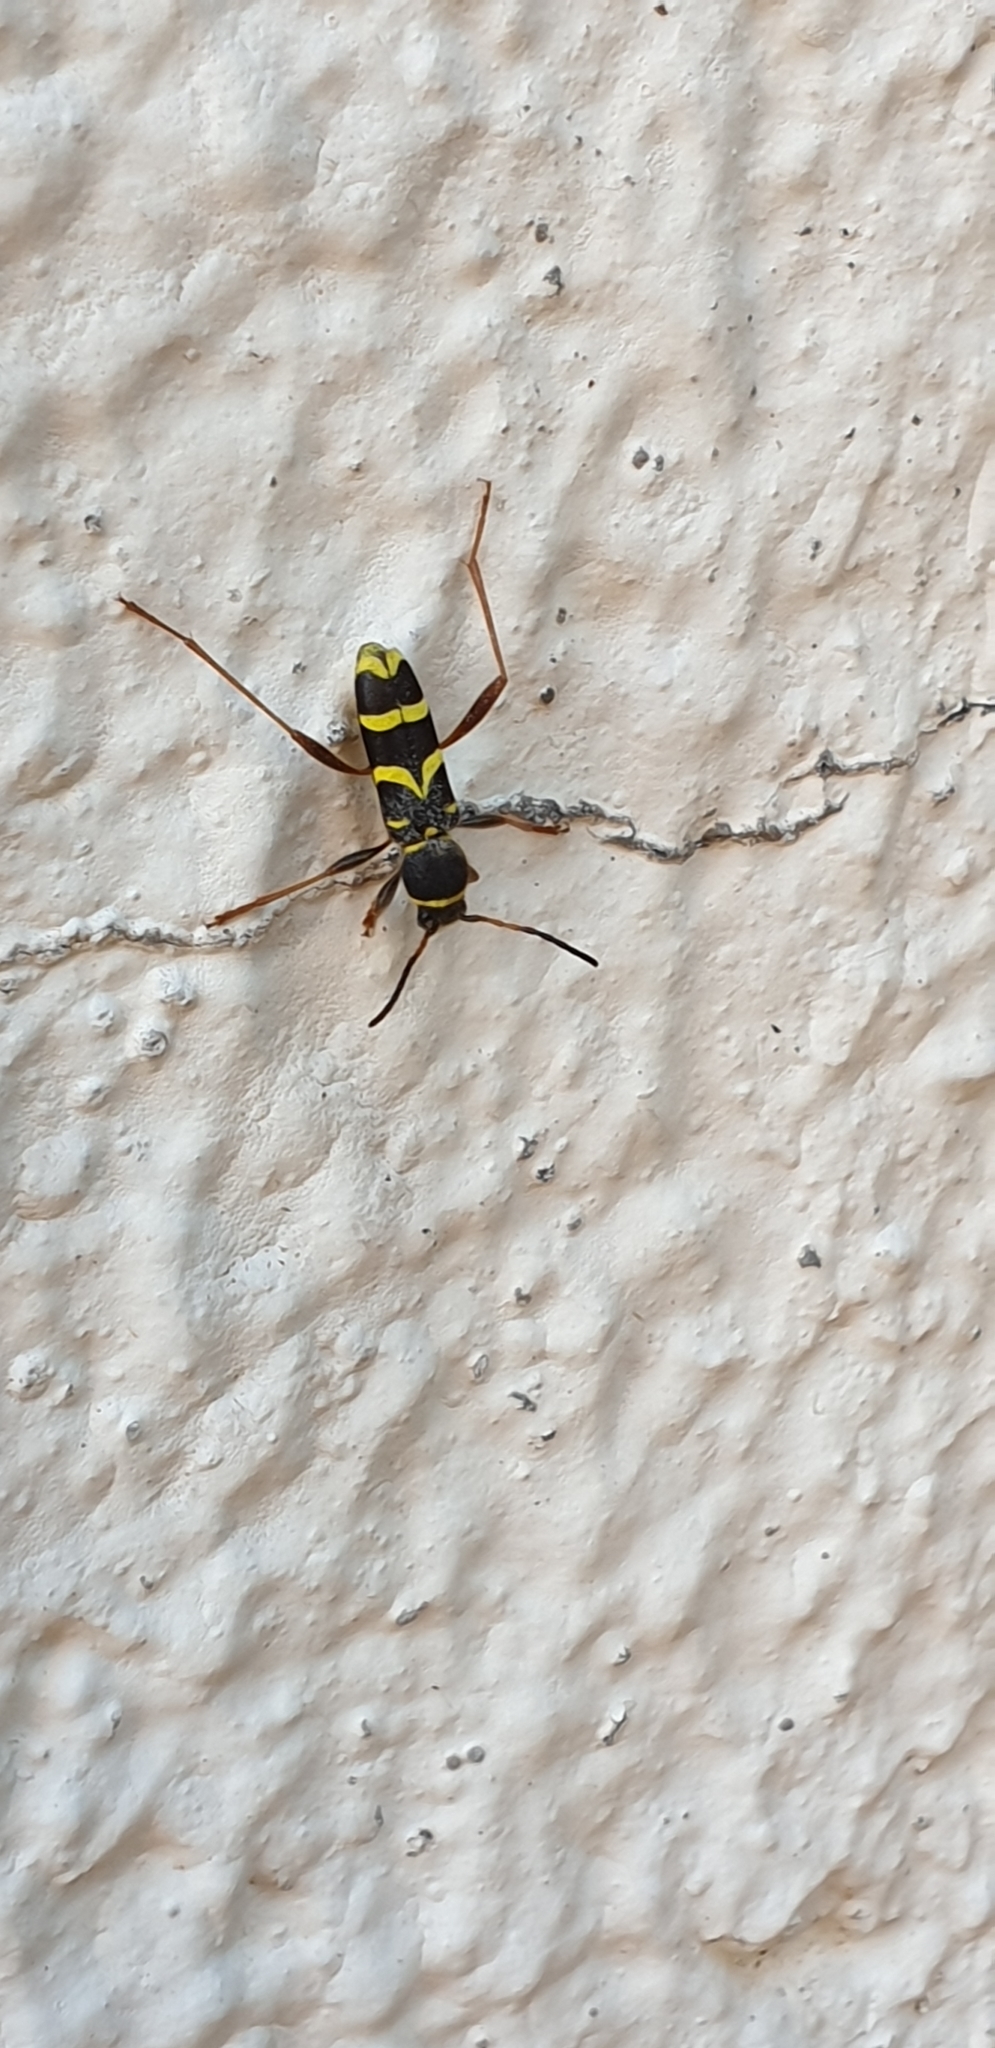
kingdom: Animalia
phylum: Arthropoda
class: Insecta
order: Coleoptera
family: Cerambycidae
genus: Clytus
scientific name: Clytus arietis
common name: Wasp beetle
